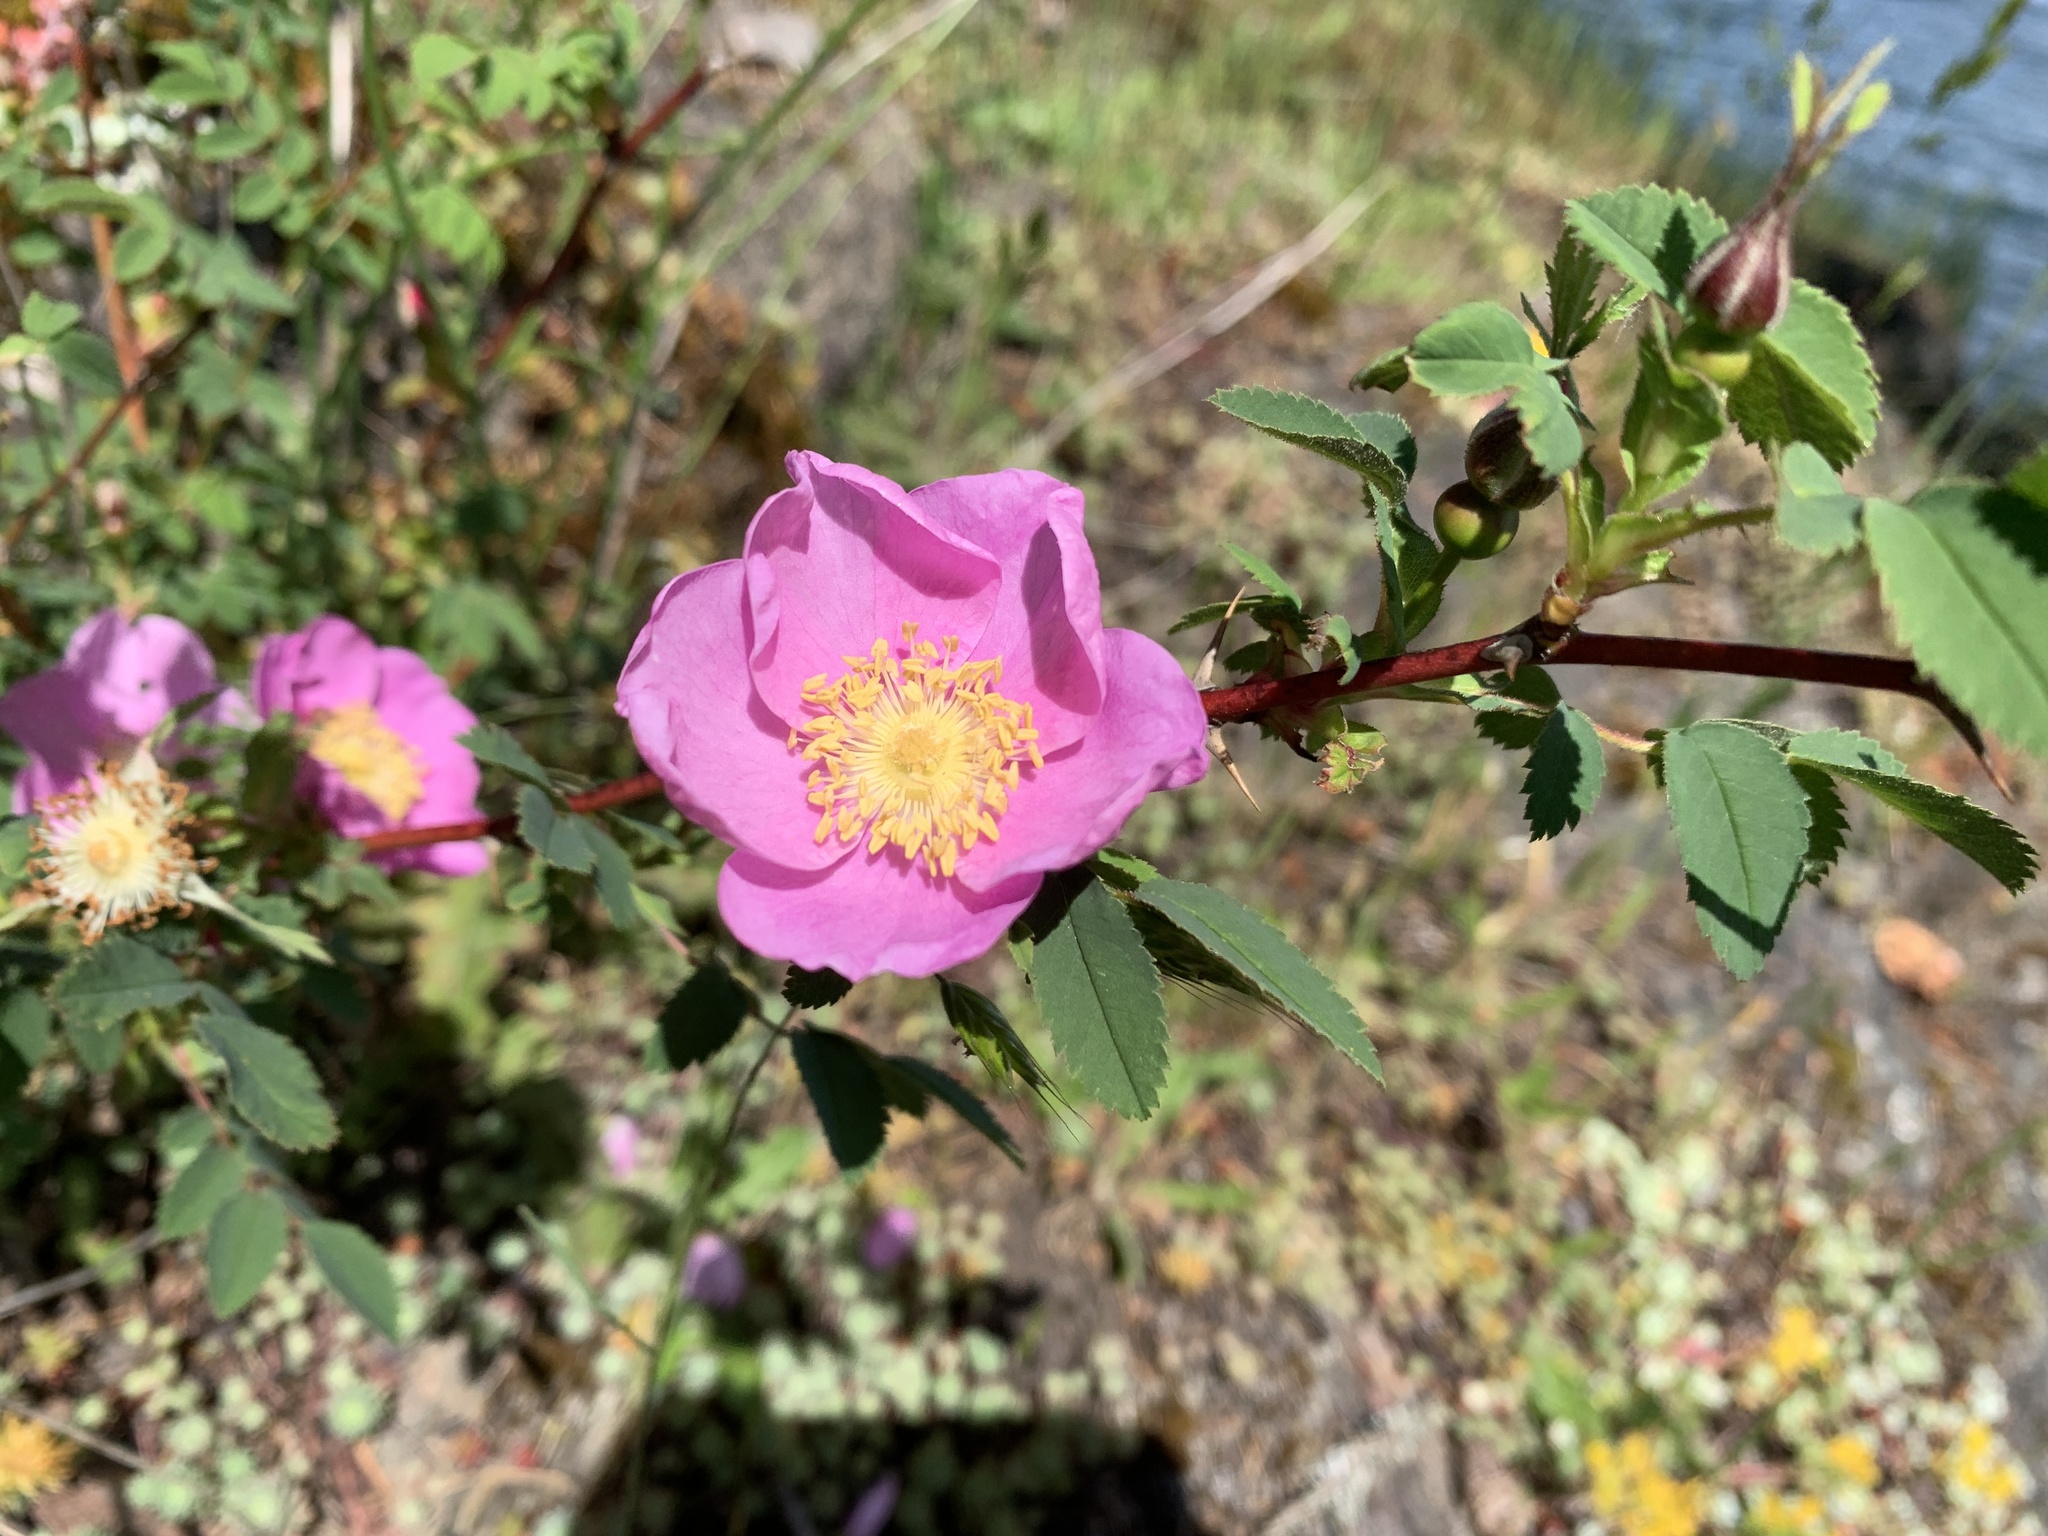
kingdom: Plantae
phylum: Tracheophyta
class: Magnoliopsida
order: Rosales
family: Rosaceae
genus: Rosa
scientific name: Rosa nutkana
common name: Nootka rose
